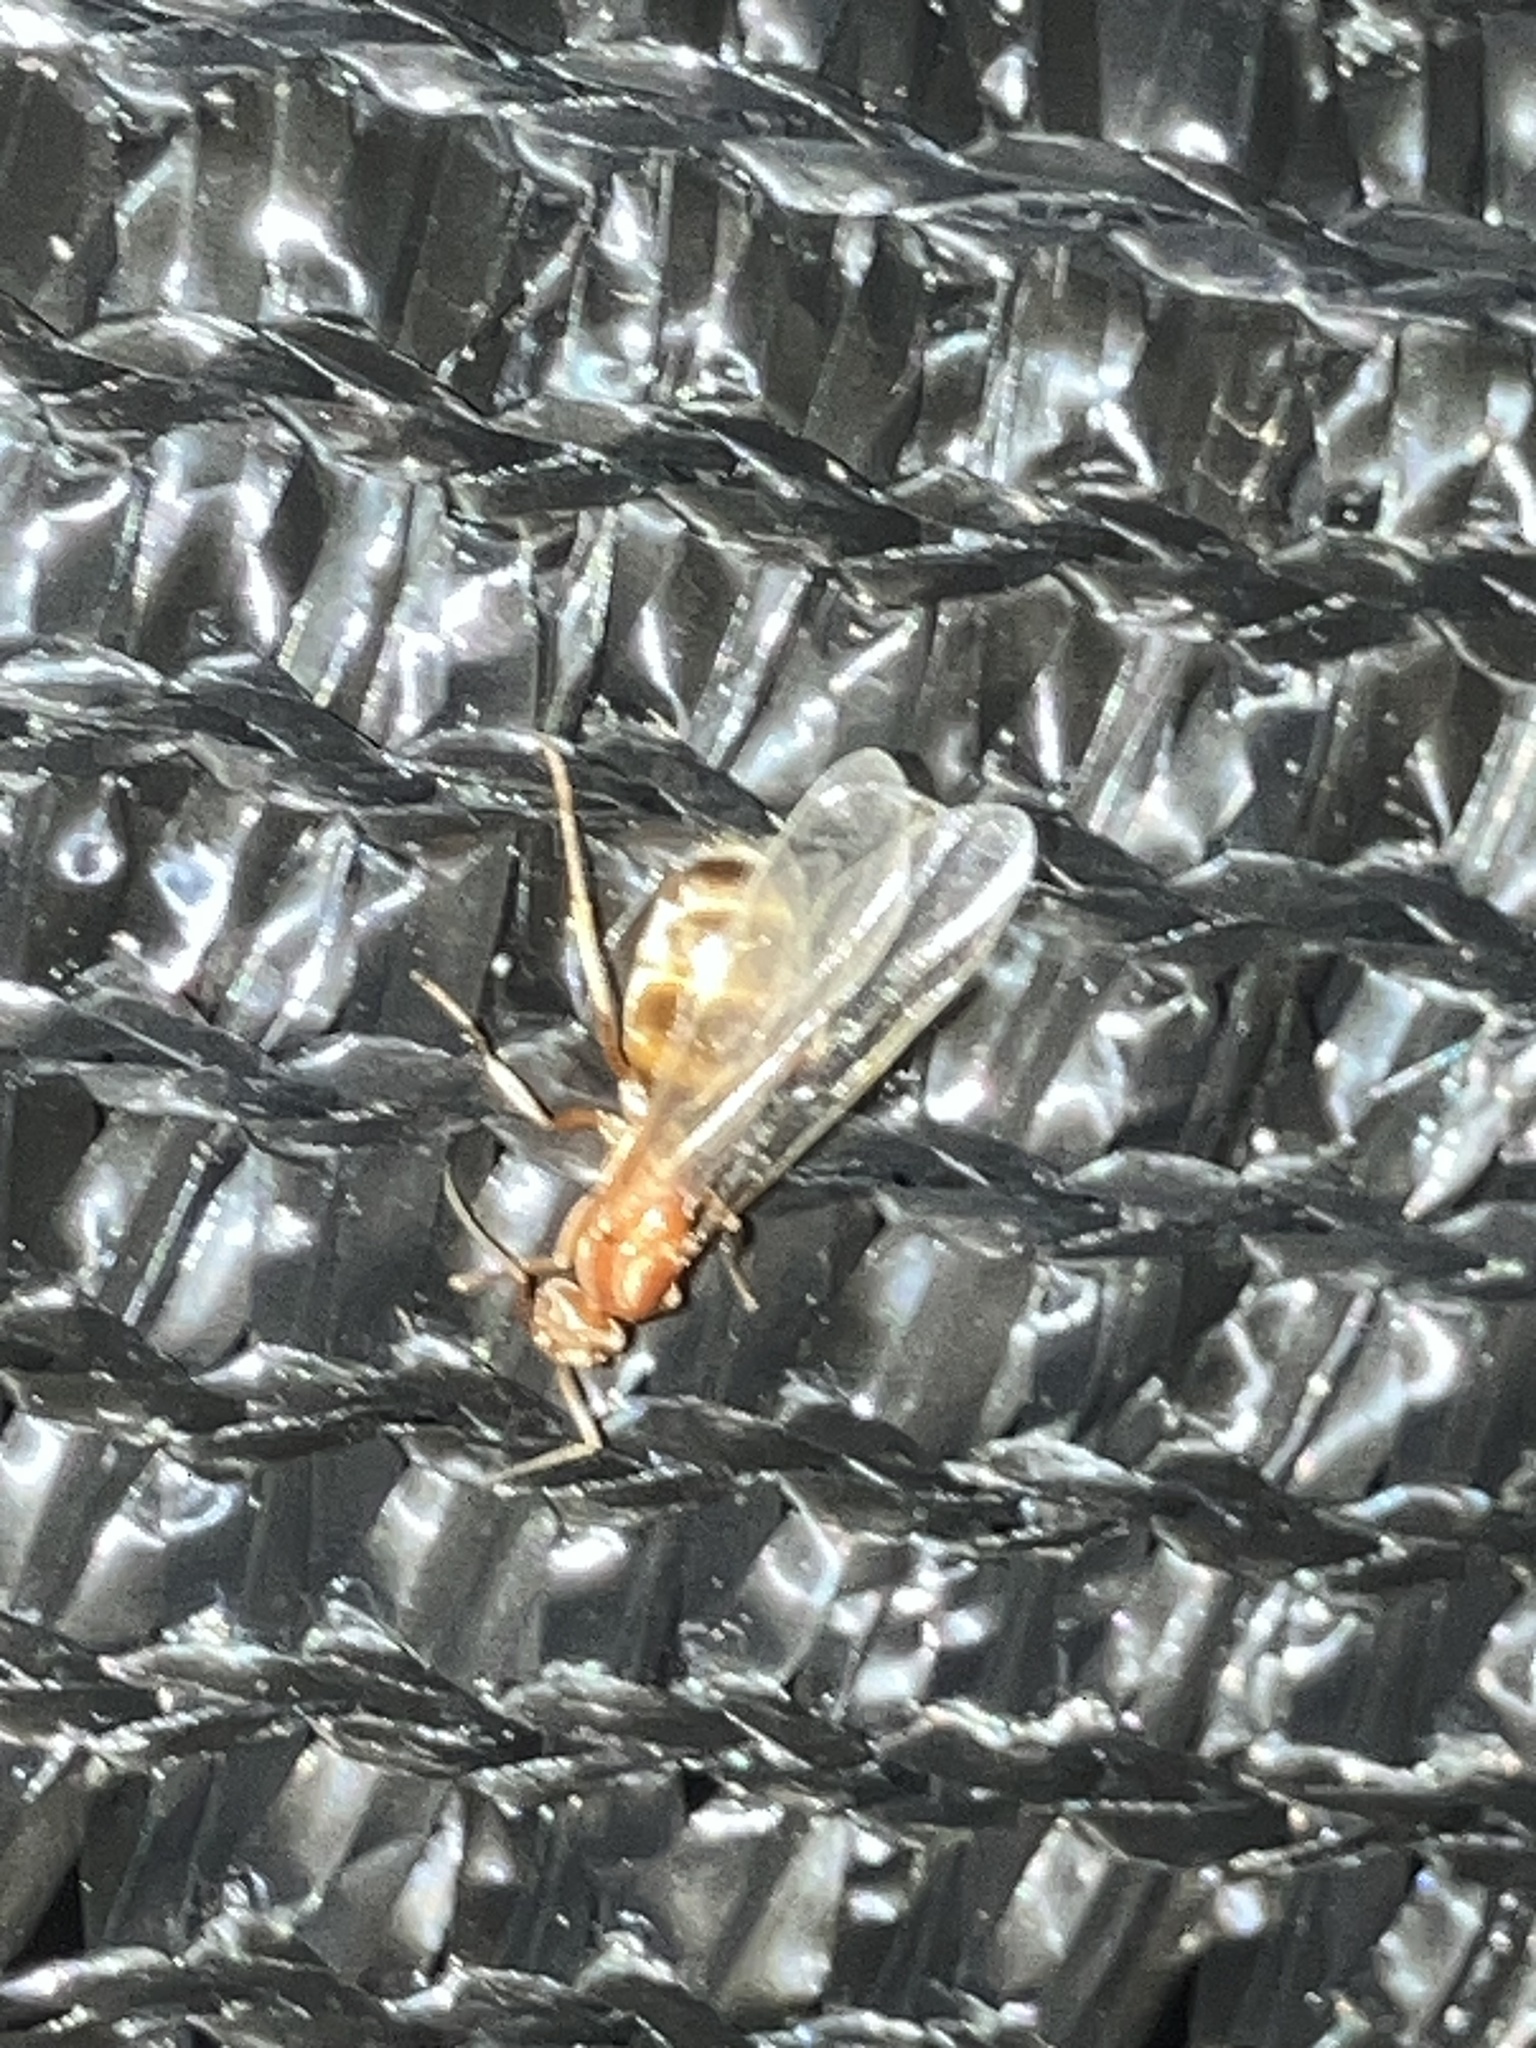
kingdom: Animalia
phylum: Arthropoda
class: Insecta
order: Hymenoptera
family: Formicidae
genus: Dorymyrmex
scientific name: Dorymyrmex bureni
